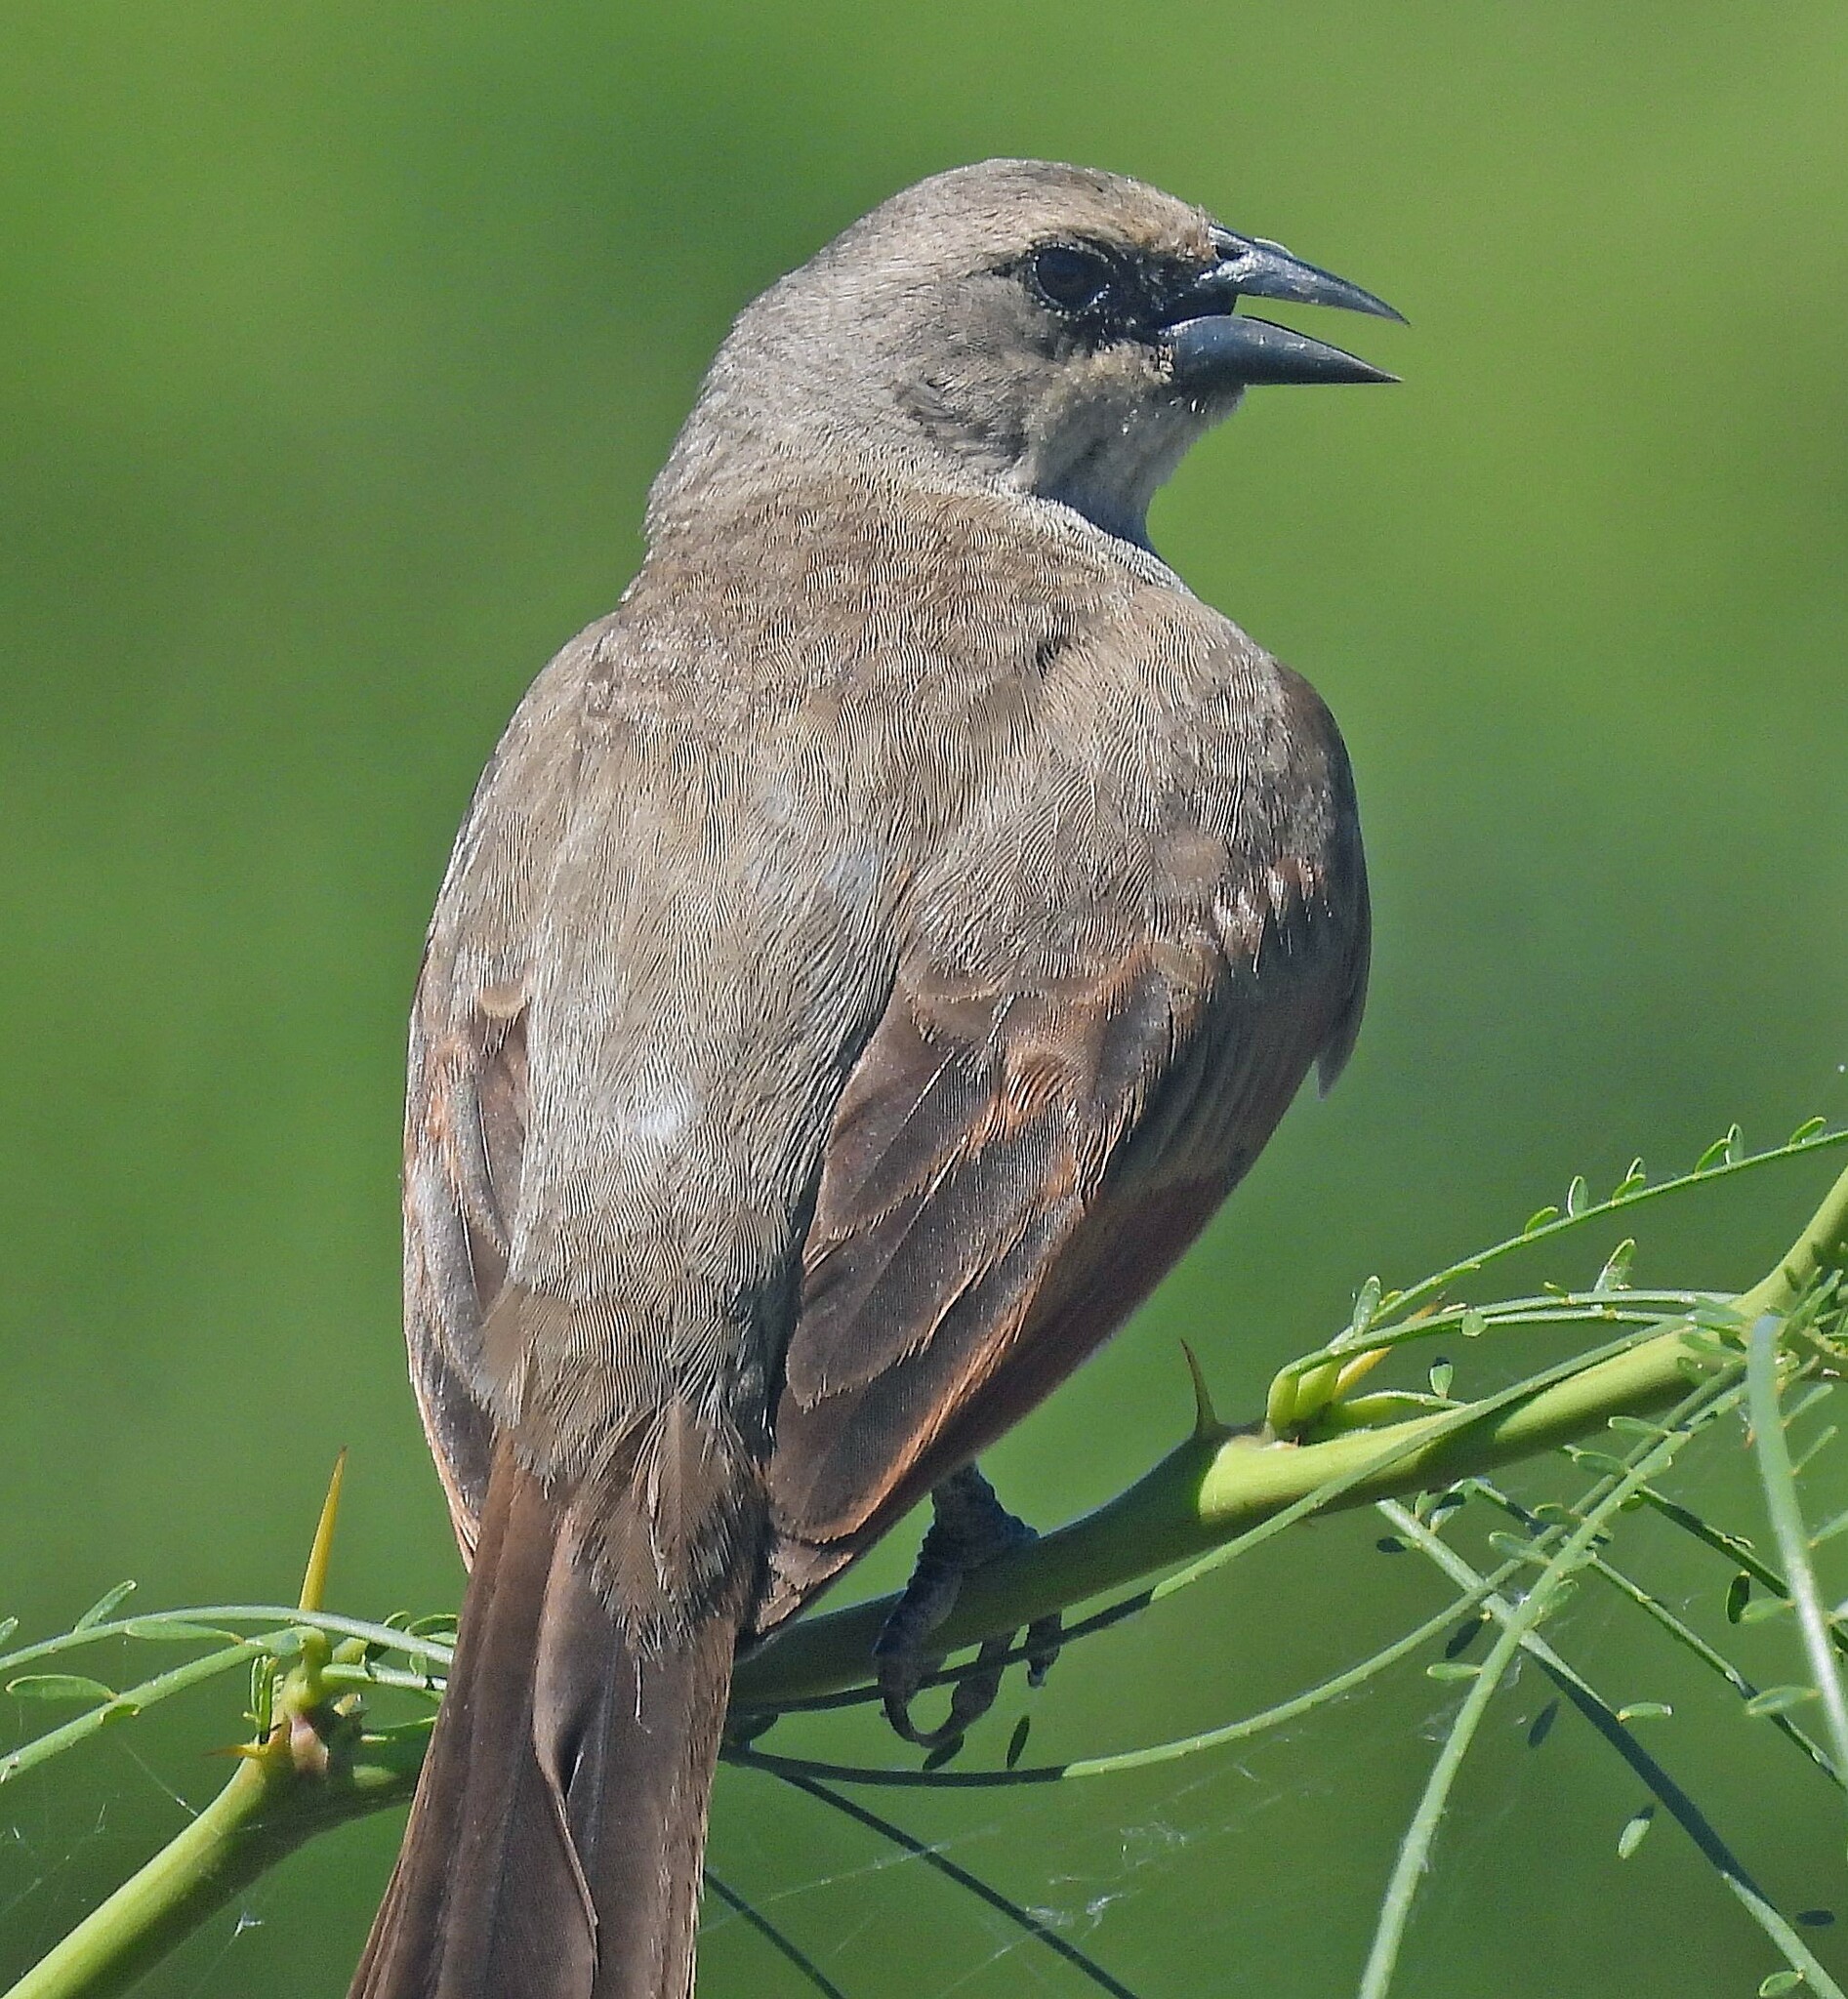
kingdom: Animalia
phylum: Chordata
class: Aves
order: Passeriformes
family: Icteridae
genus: Agelaioides
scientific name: Agelaioides badius
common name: Baywing
